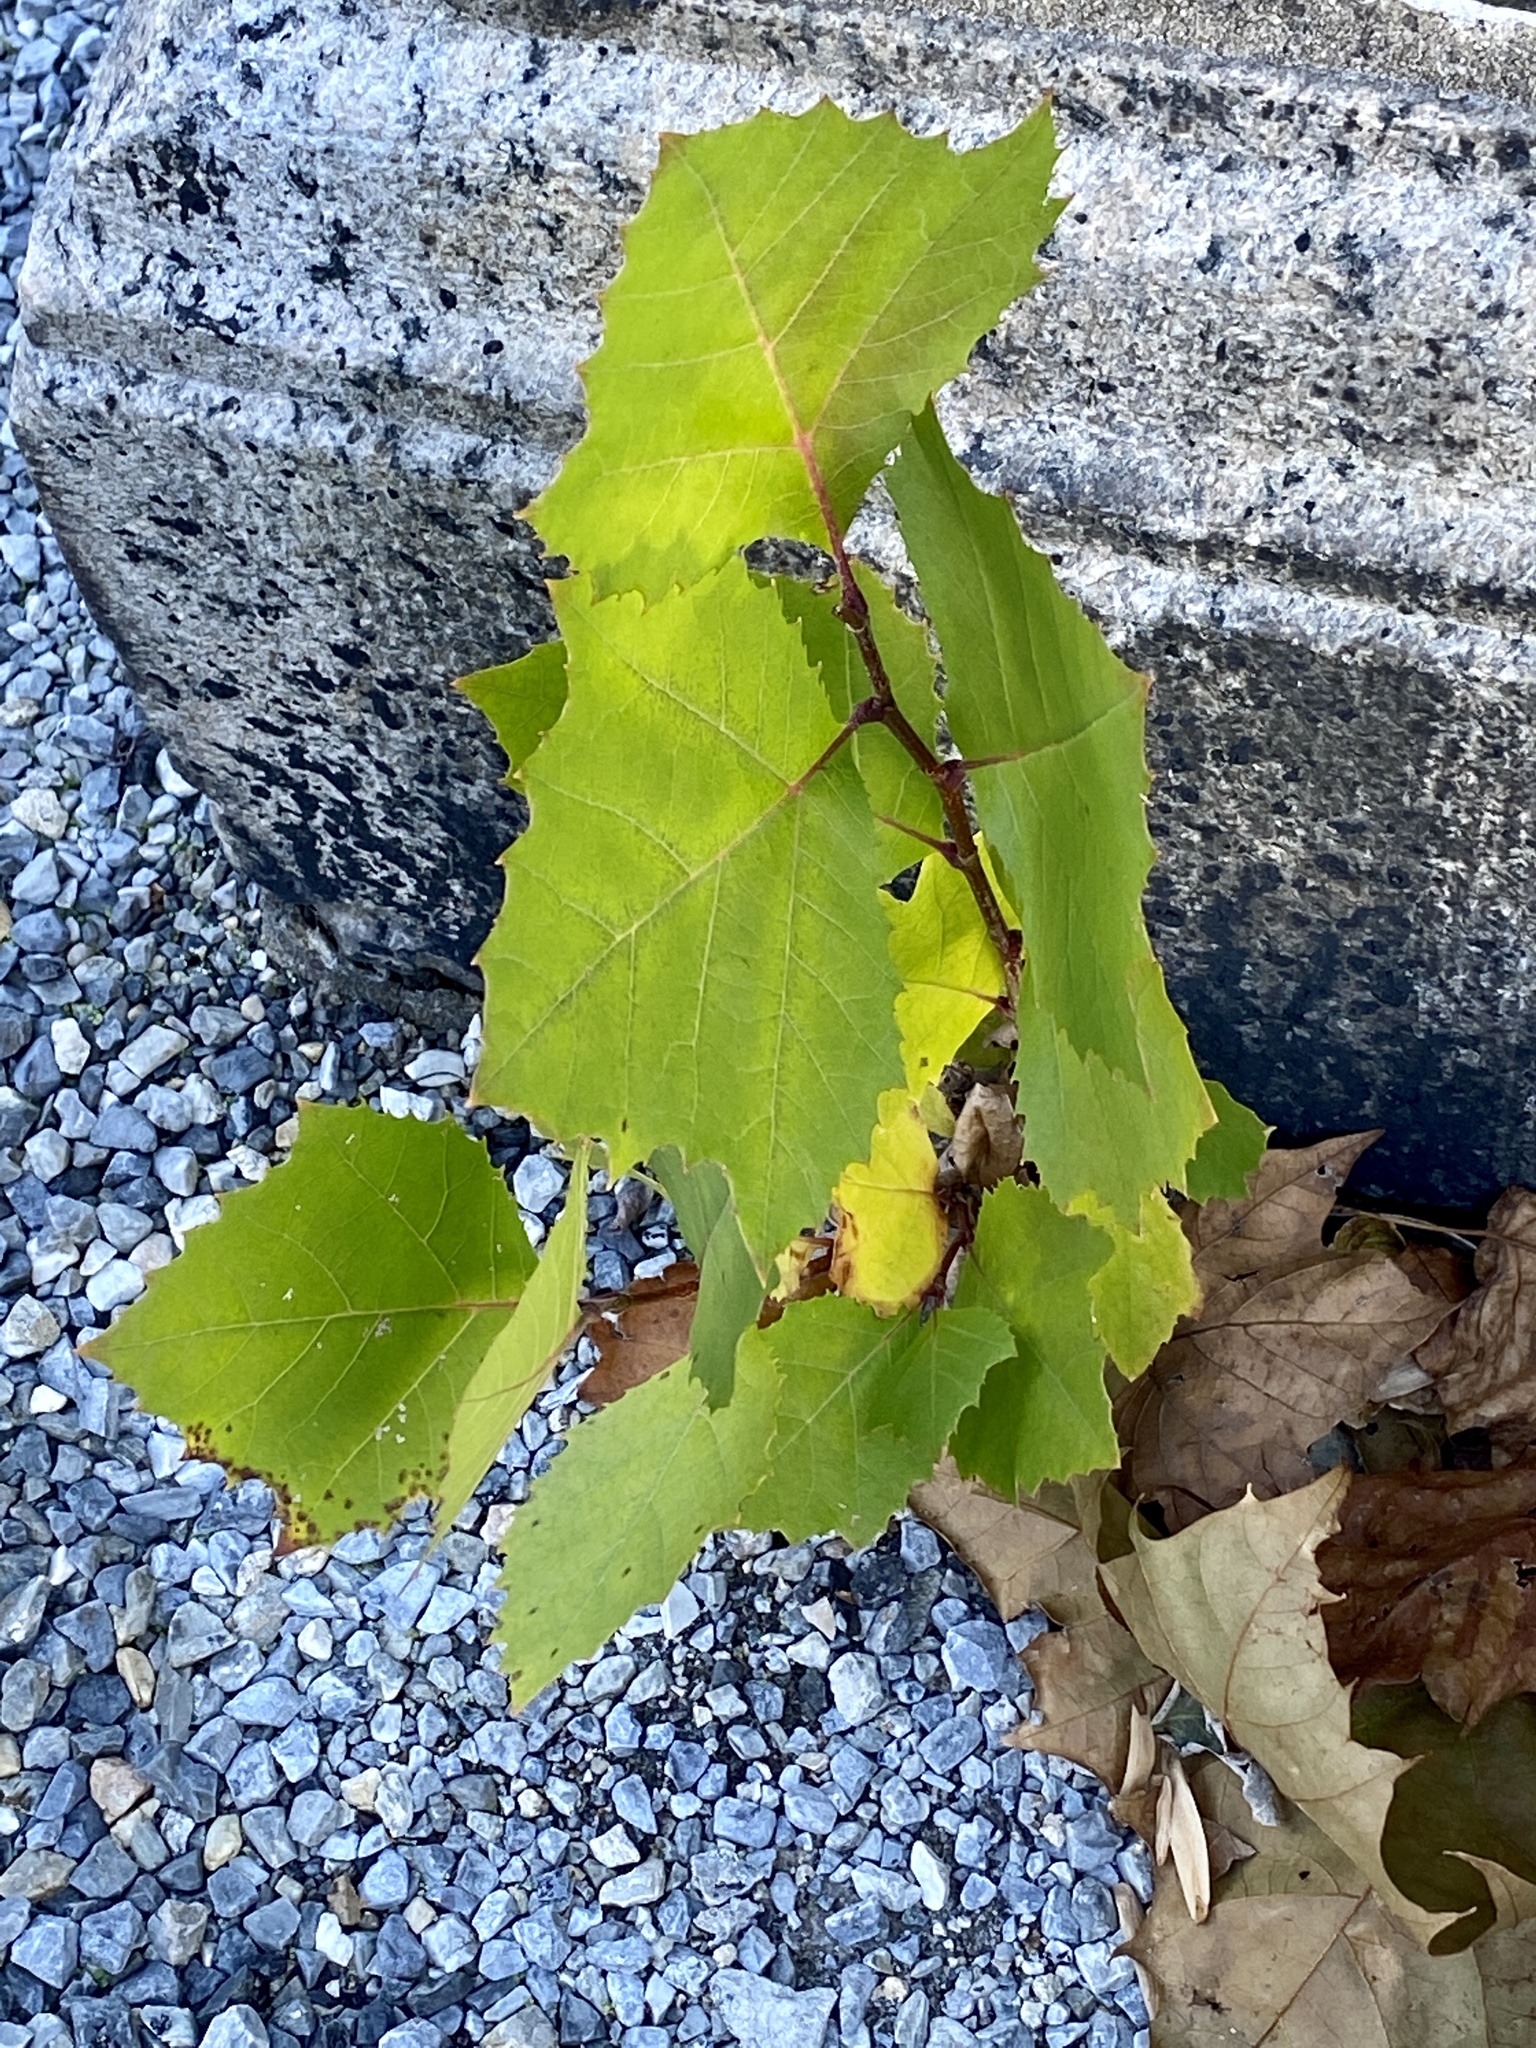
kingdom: Plantae
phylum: Tracheophyta
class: Magnoliopsida
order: Proteales
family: Platanaceae
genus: Platanus
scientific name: Platanus occidentalis
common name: American sycamore
